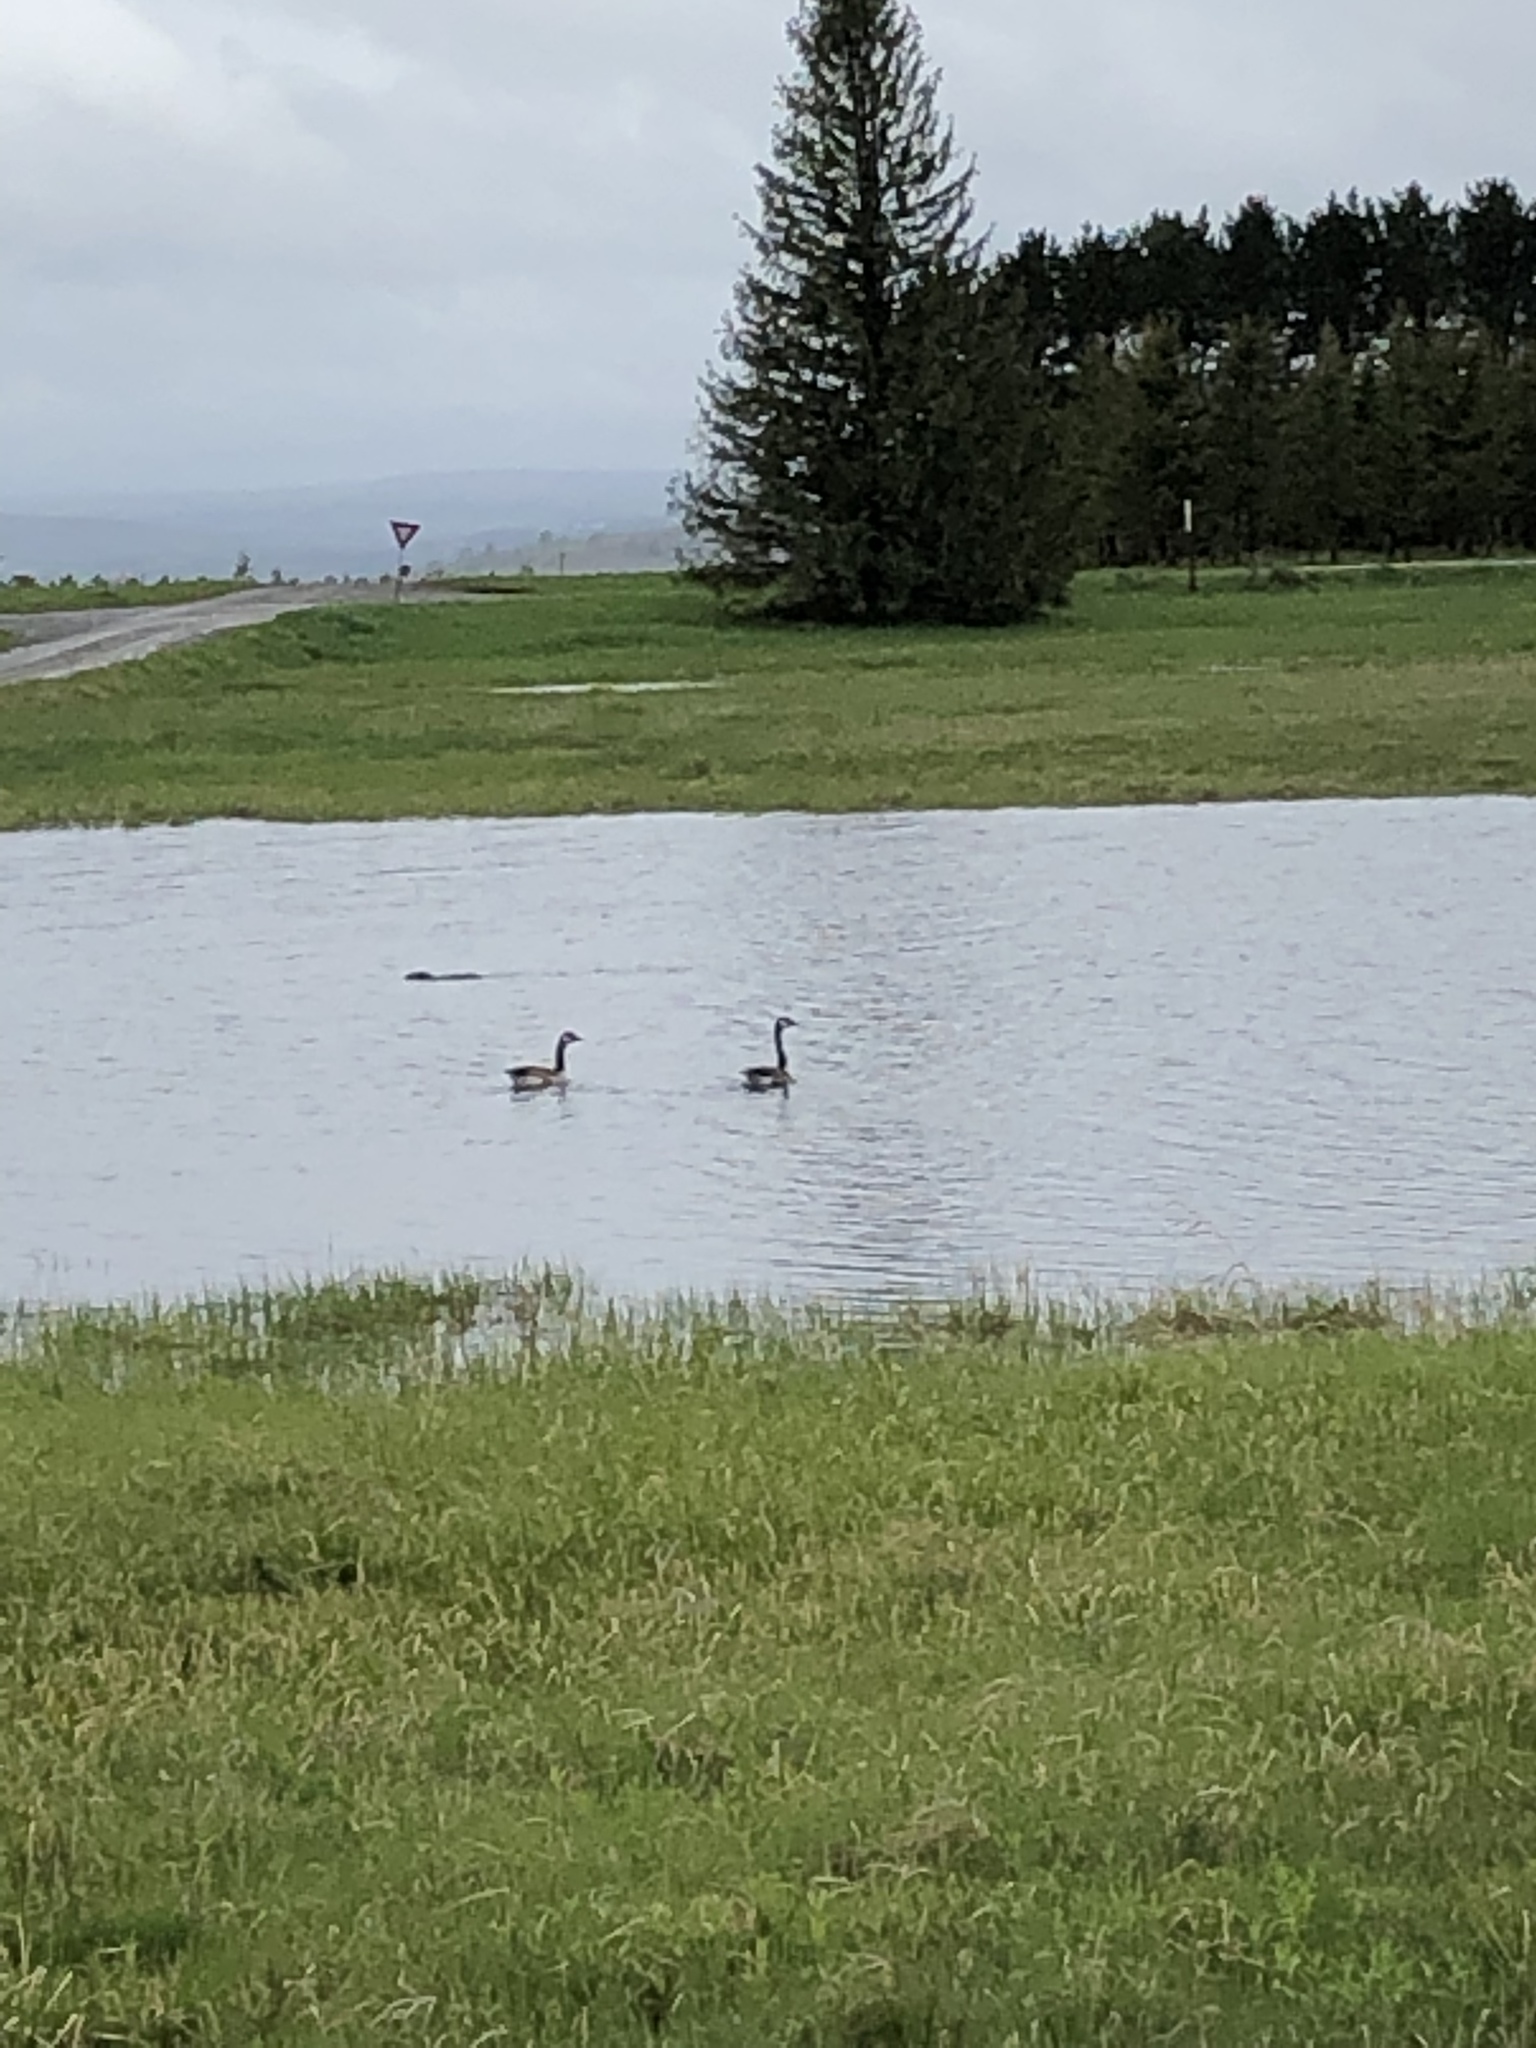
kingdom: Animalia
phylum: Chordata
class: Aves
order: Anseriformes
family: Anatidae
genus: Branta
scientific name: Branta canadensis
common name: Canada goose
